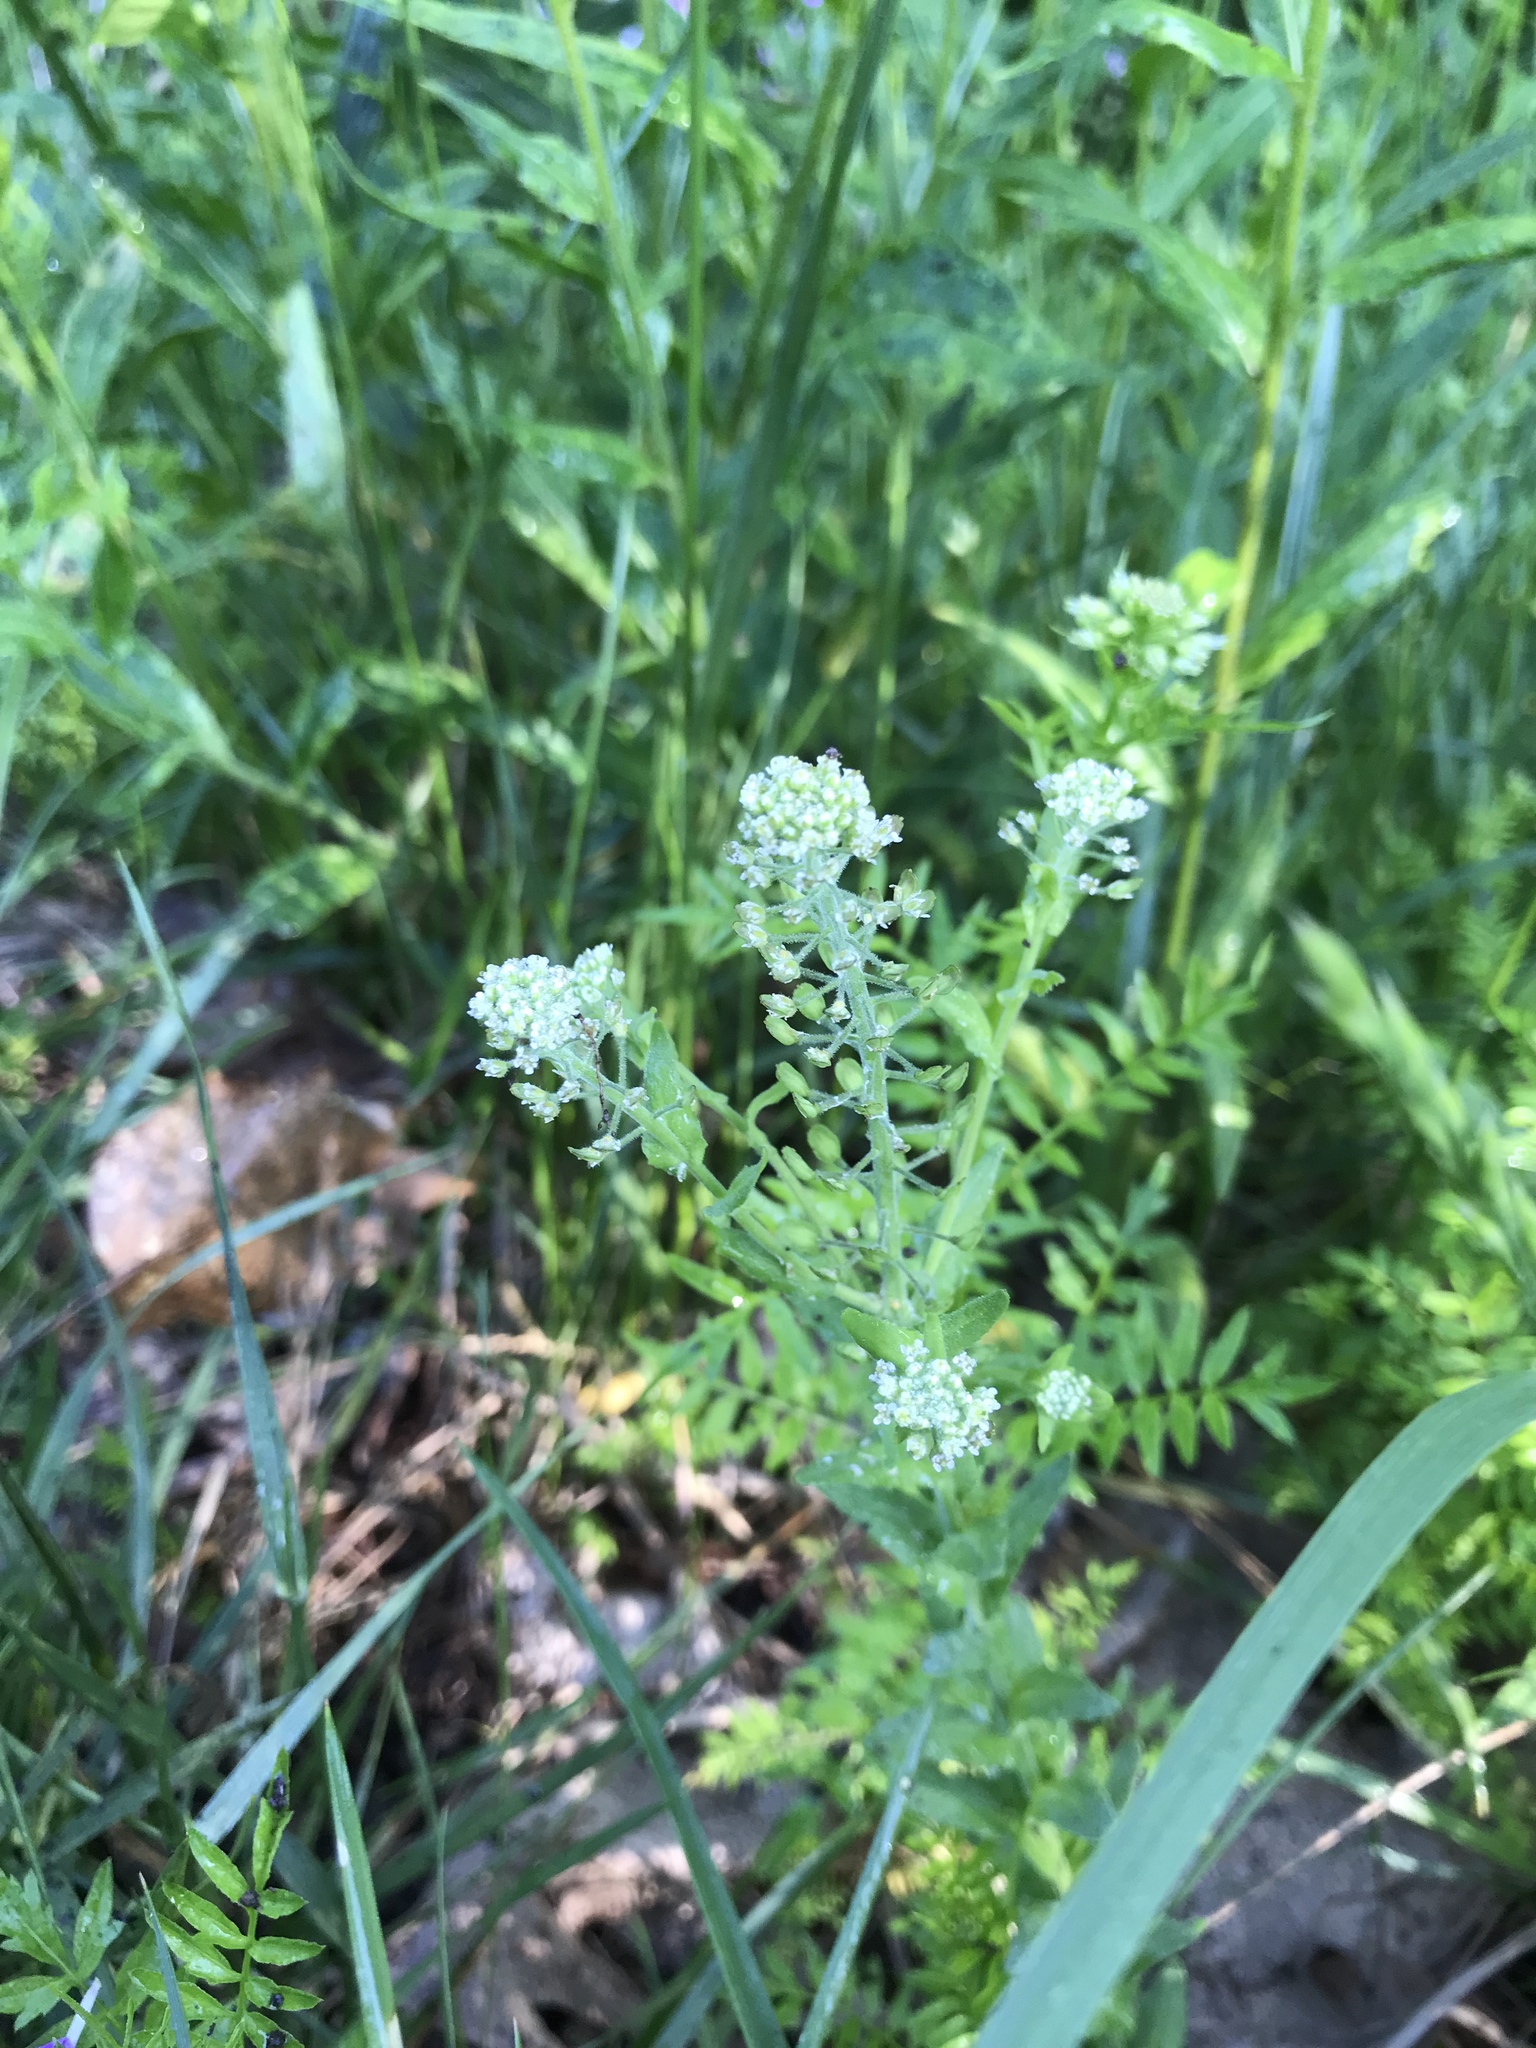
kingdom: Plantae
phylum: Tracheophyta
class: Magnoliopsida
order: Brassicales
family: Brassicaceae
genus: Lepidium
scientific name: Lepidium campestre
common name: Field pepperwort
